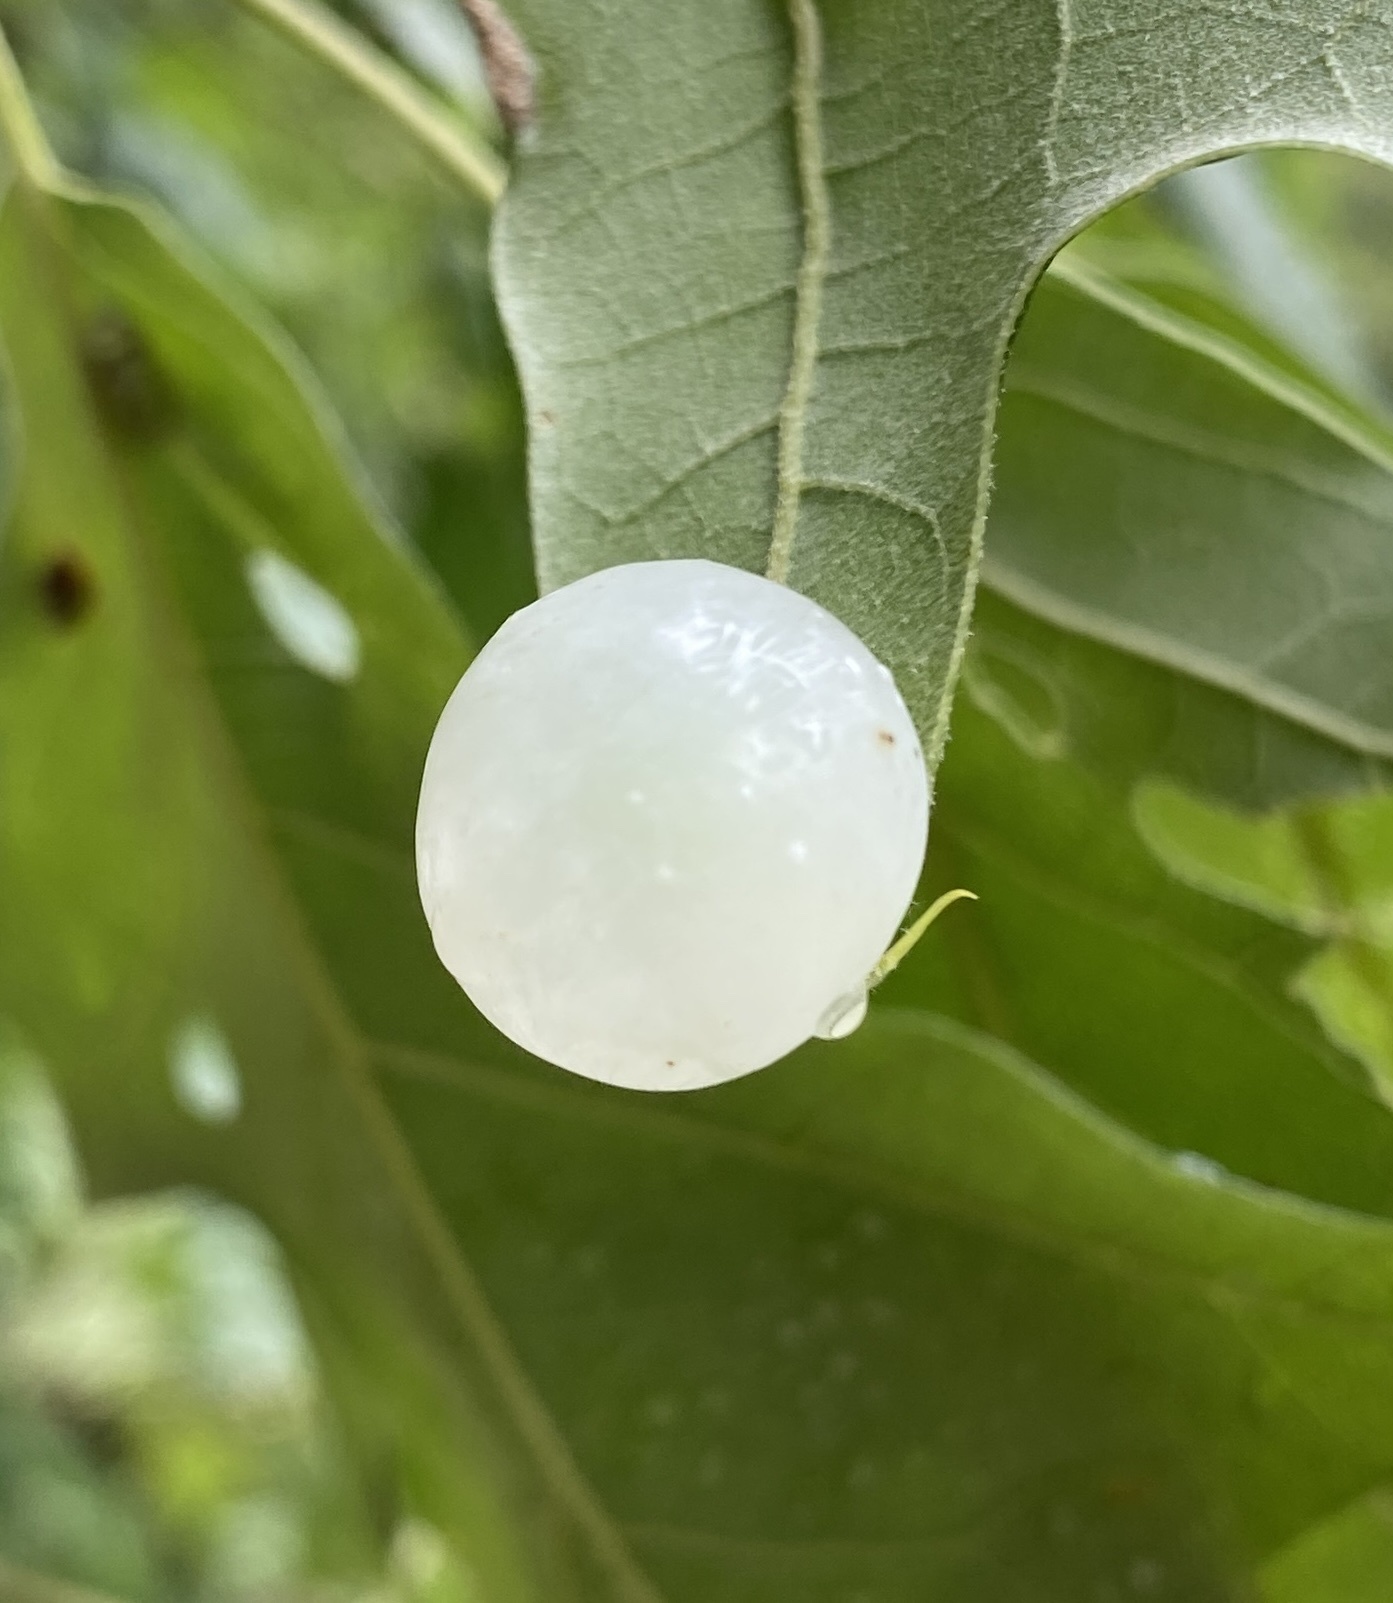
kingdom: Animalia
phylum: Arthropoda
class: Insecta
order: Hymenoptera
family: Cynipidae
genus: Amphibolips
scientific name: Amphibolips
